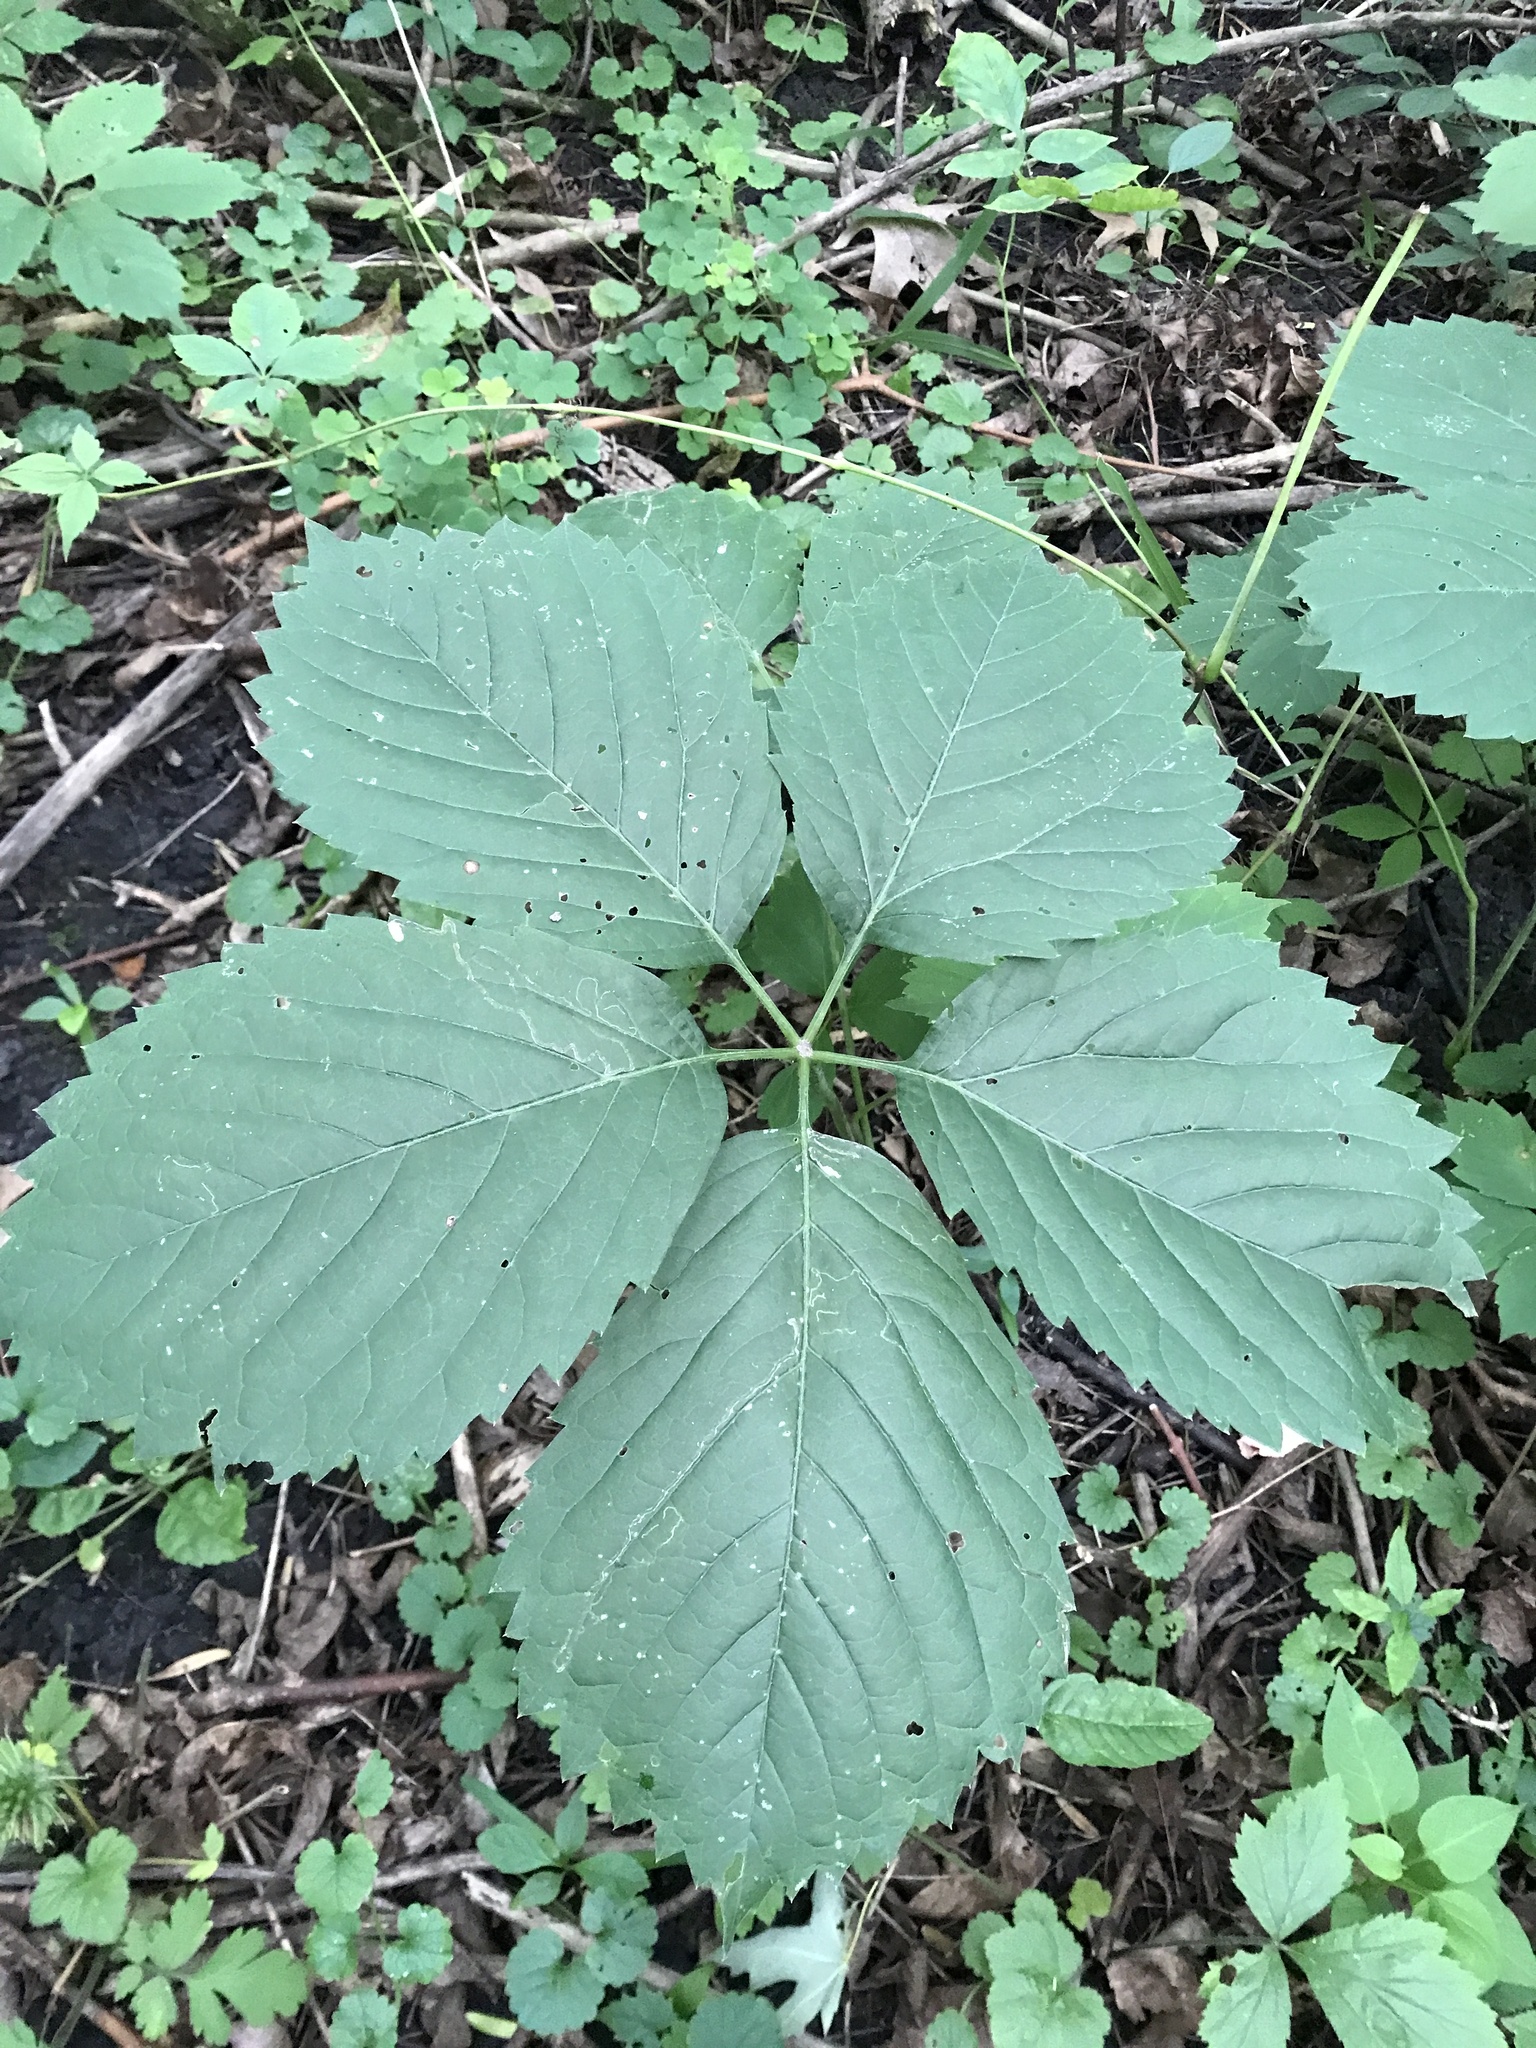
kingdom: Plantae
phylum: Tracheophyta
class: Magnoliopsida
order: Vitales
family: Vitaceae
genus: Parthenocissus
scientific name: Parthenocissus inserta
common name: False virginia-creeper
